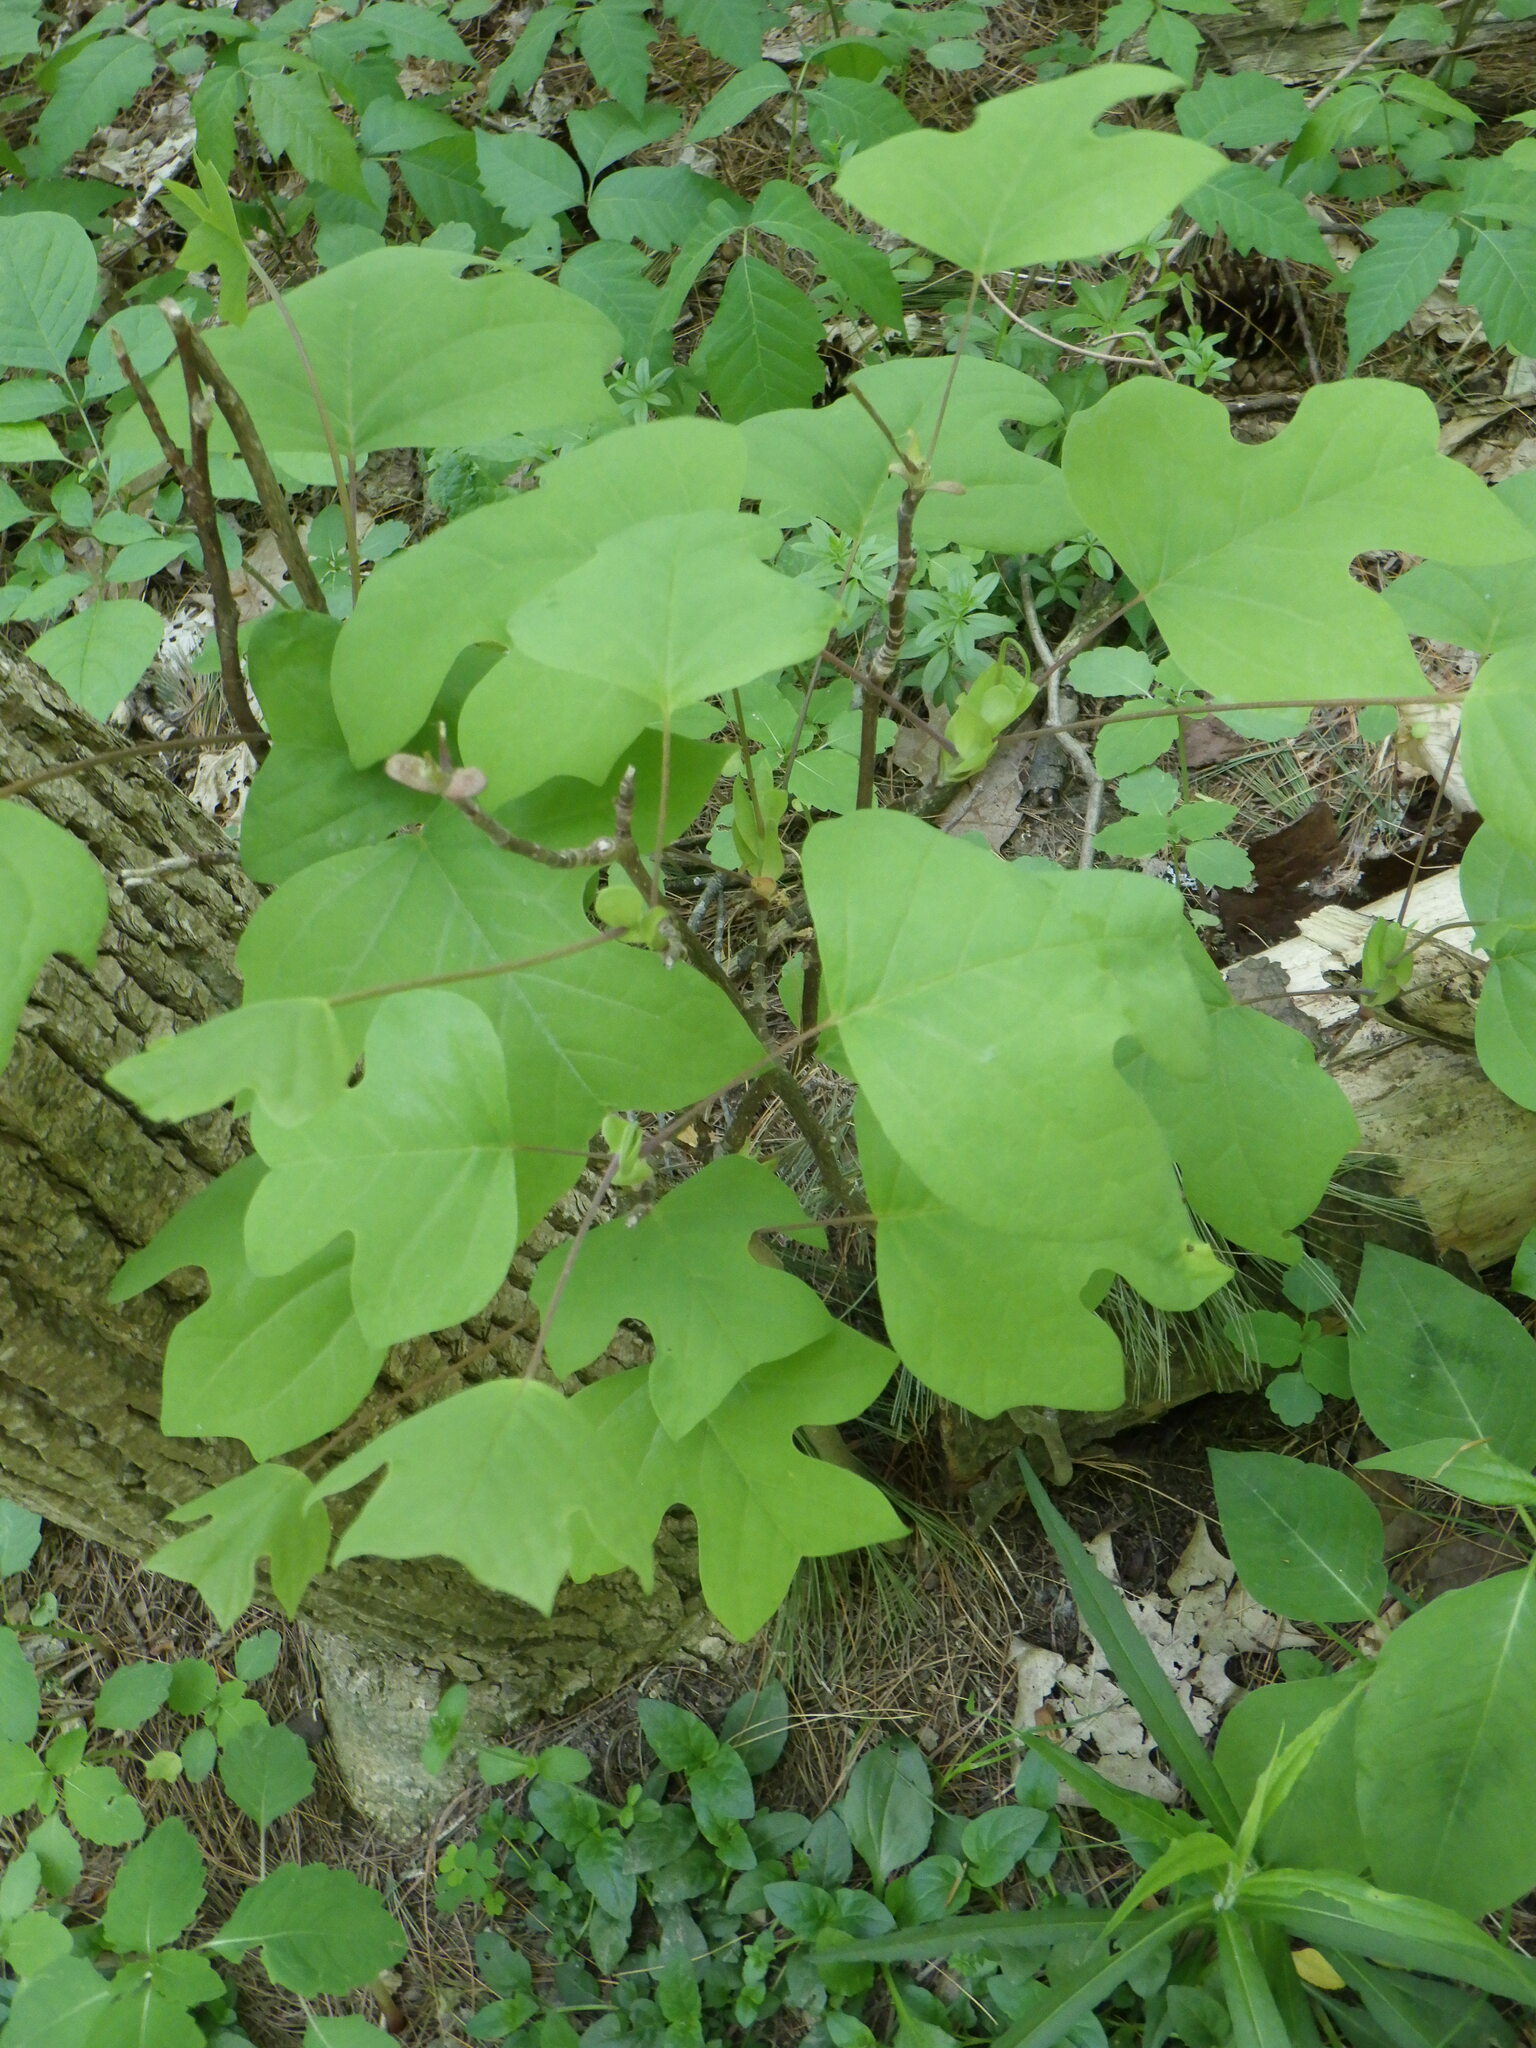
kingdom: Plantae
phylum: Tracheophyta
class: Magnoliopsida
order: Magnoliales
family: Magnoliaceae
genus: Liriodendron
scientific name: Liriodendron tulipifera
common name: Tulip tree
